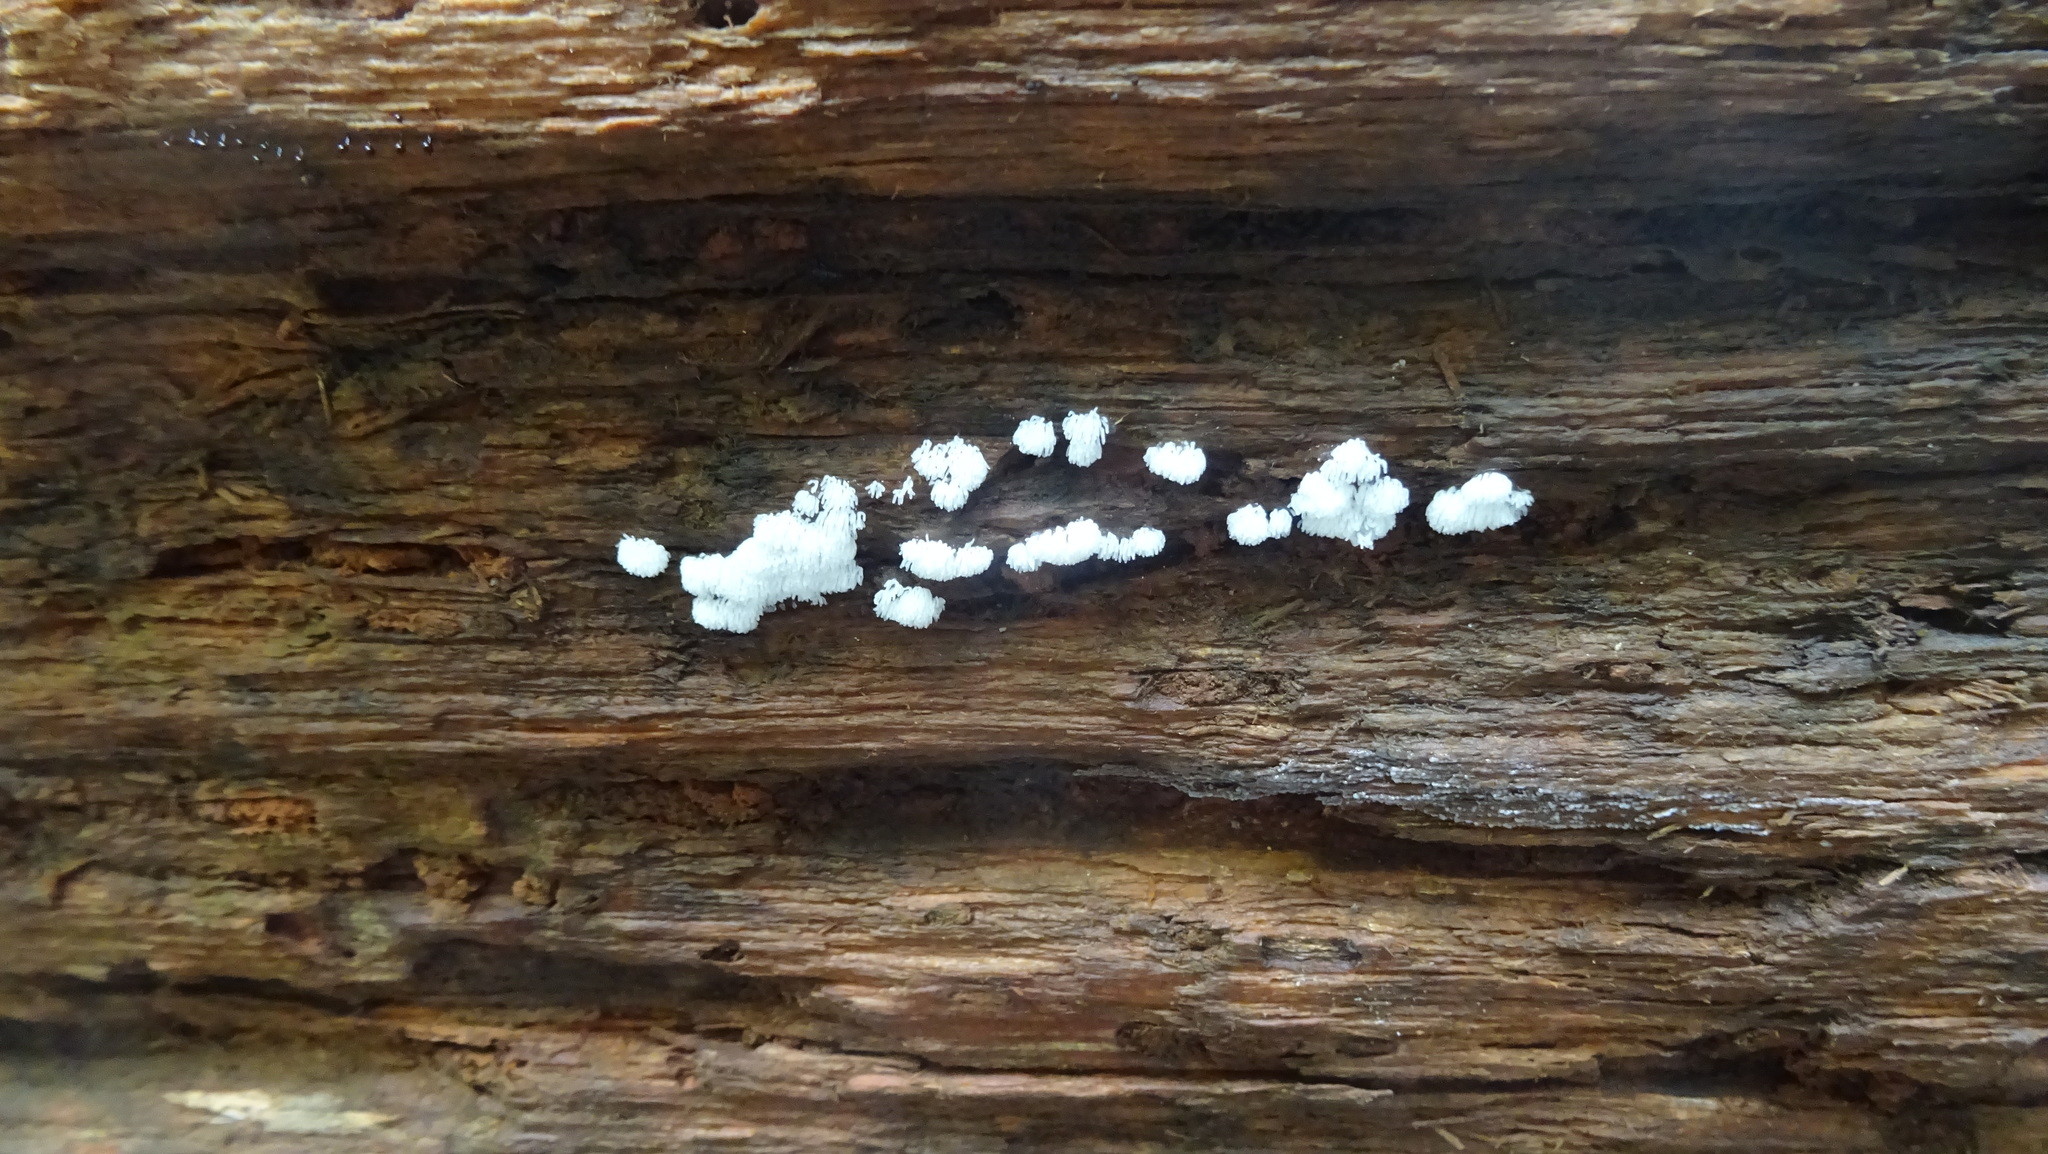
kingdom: Protozoa
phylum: Mycetozoa
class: Protosteliomycetes
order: Ceratiomyxales
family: Ceratiomyxaceae
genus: Ceratiomyxa
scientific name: Ceratiomyxa fruticulosa
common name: Honeycomb coral slime mold
